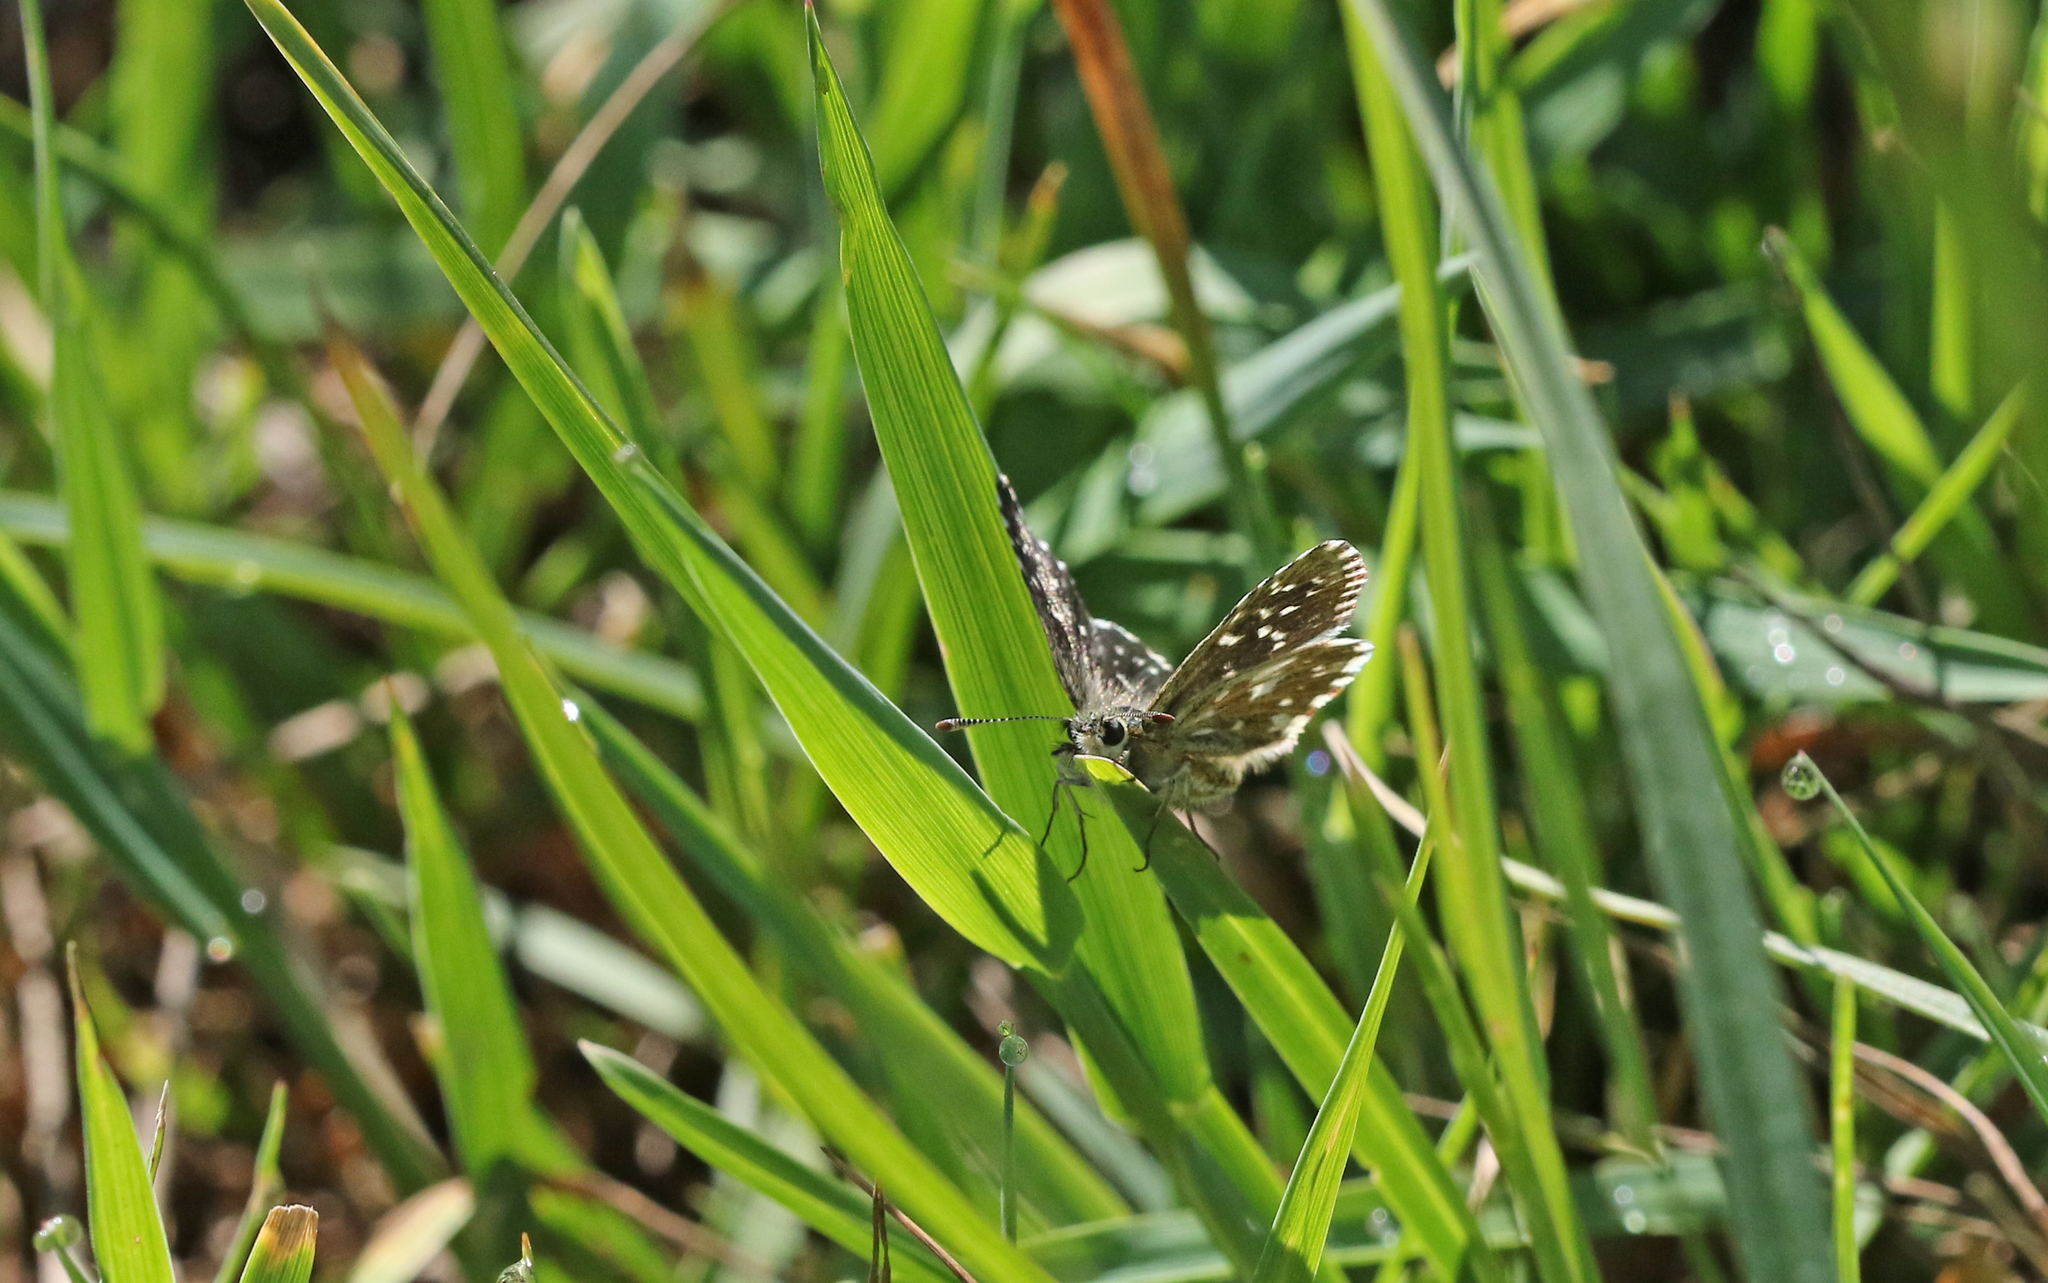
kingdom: Animalia
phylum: Arthropoda
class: Insecta
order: Lepidoptera
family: Hesperiidae
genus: Pyrgus
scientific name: Pyrgus malvae
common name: Grizzled skipper
